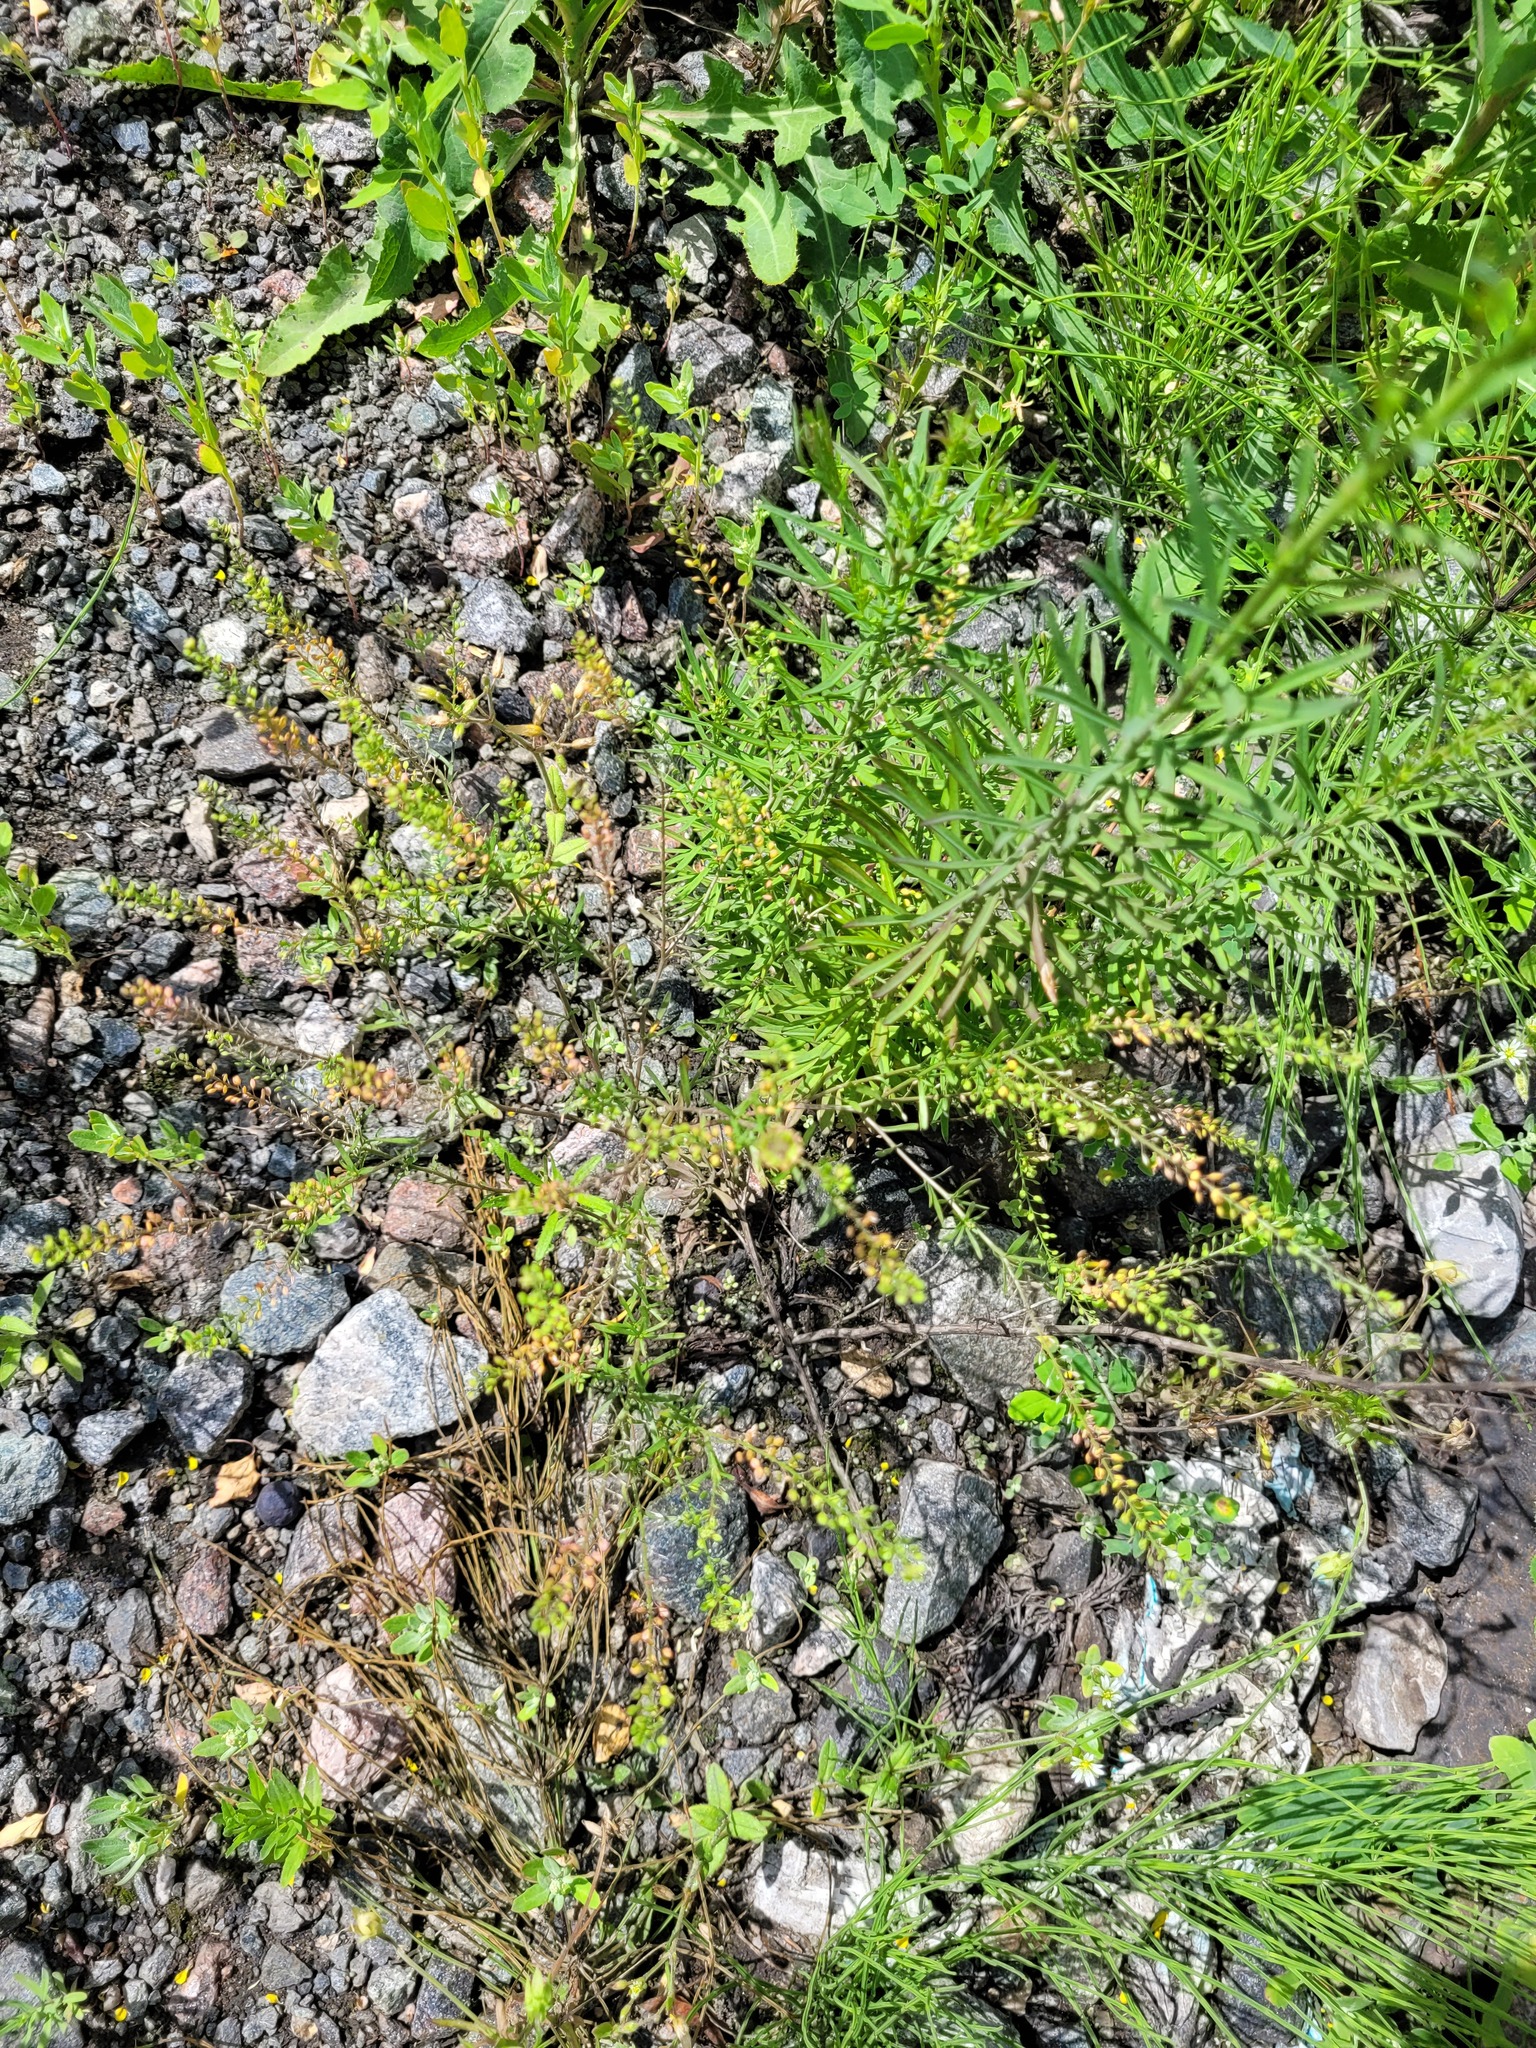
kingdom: Plantae
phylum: Tracheophyta
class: Magnoliopsida
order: Brassicales
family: Brassicaceae
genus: Lepidium
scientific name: Lepidium ruderale
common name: Narrow-leaved pepperwort
